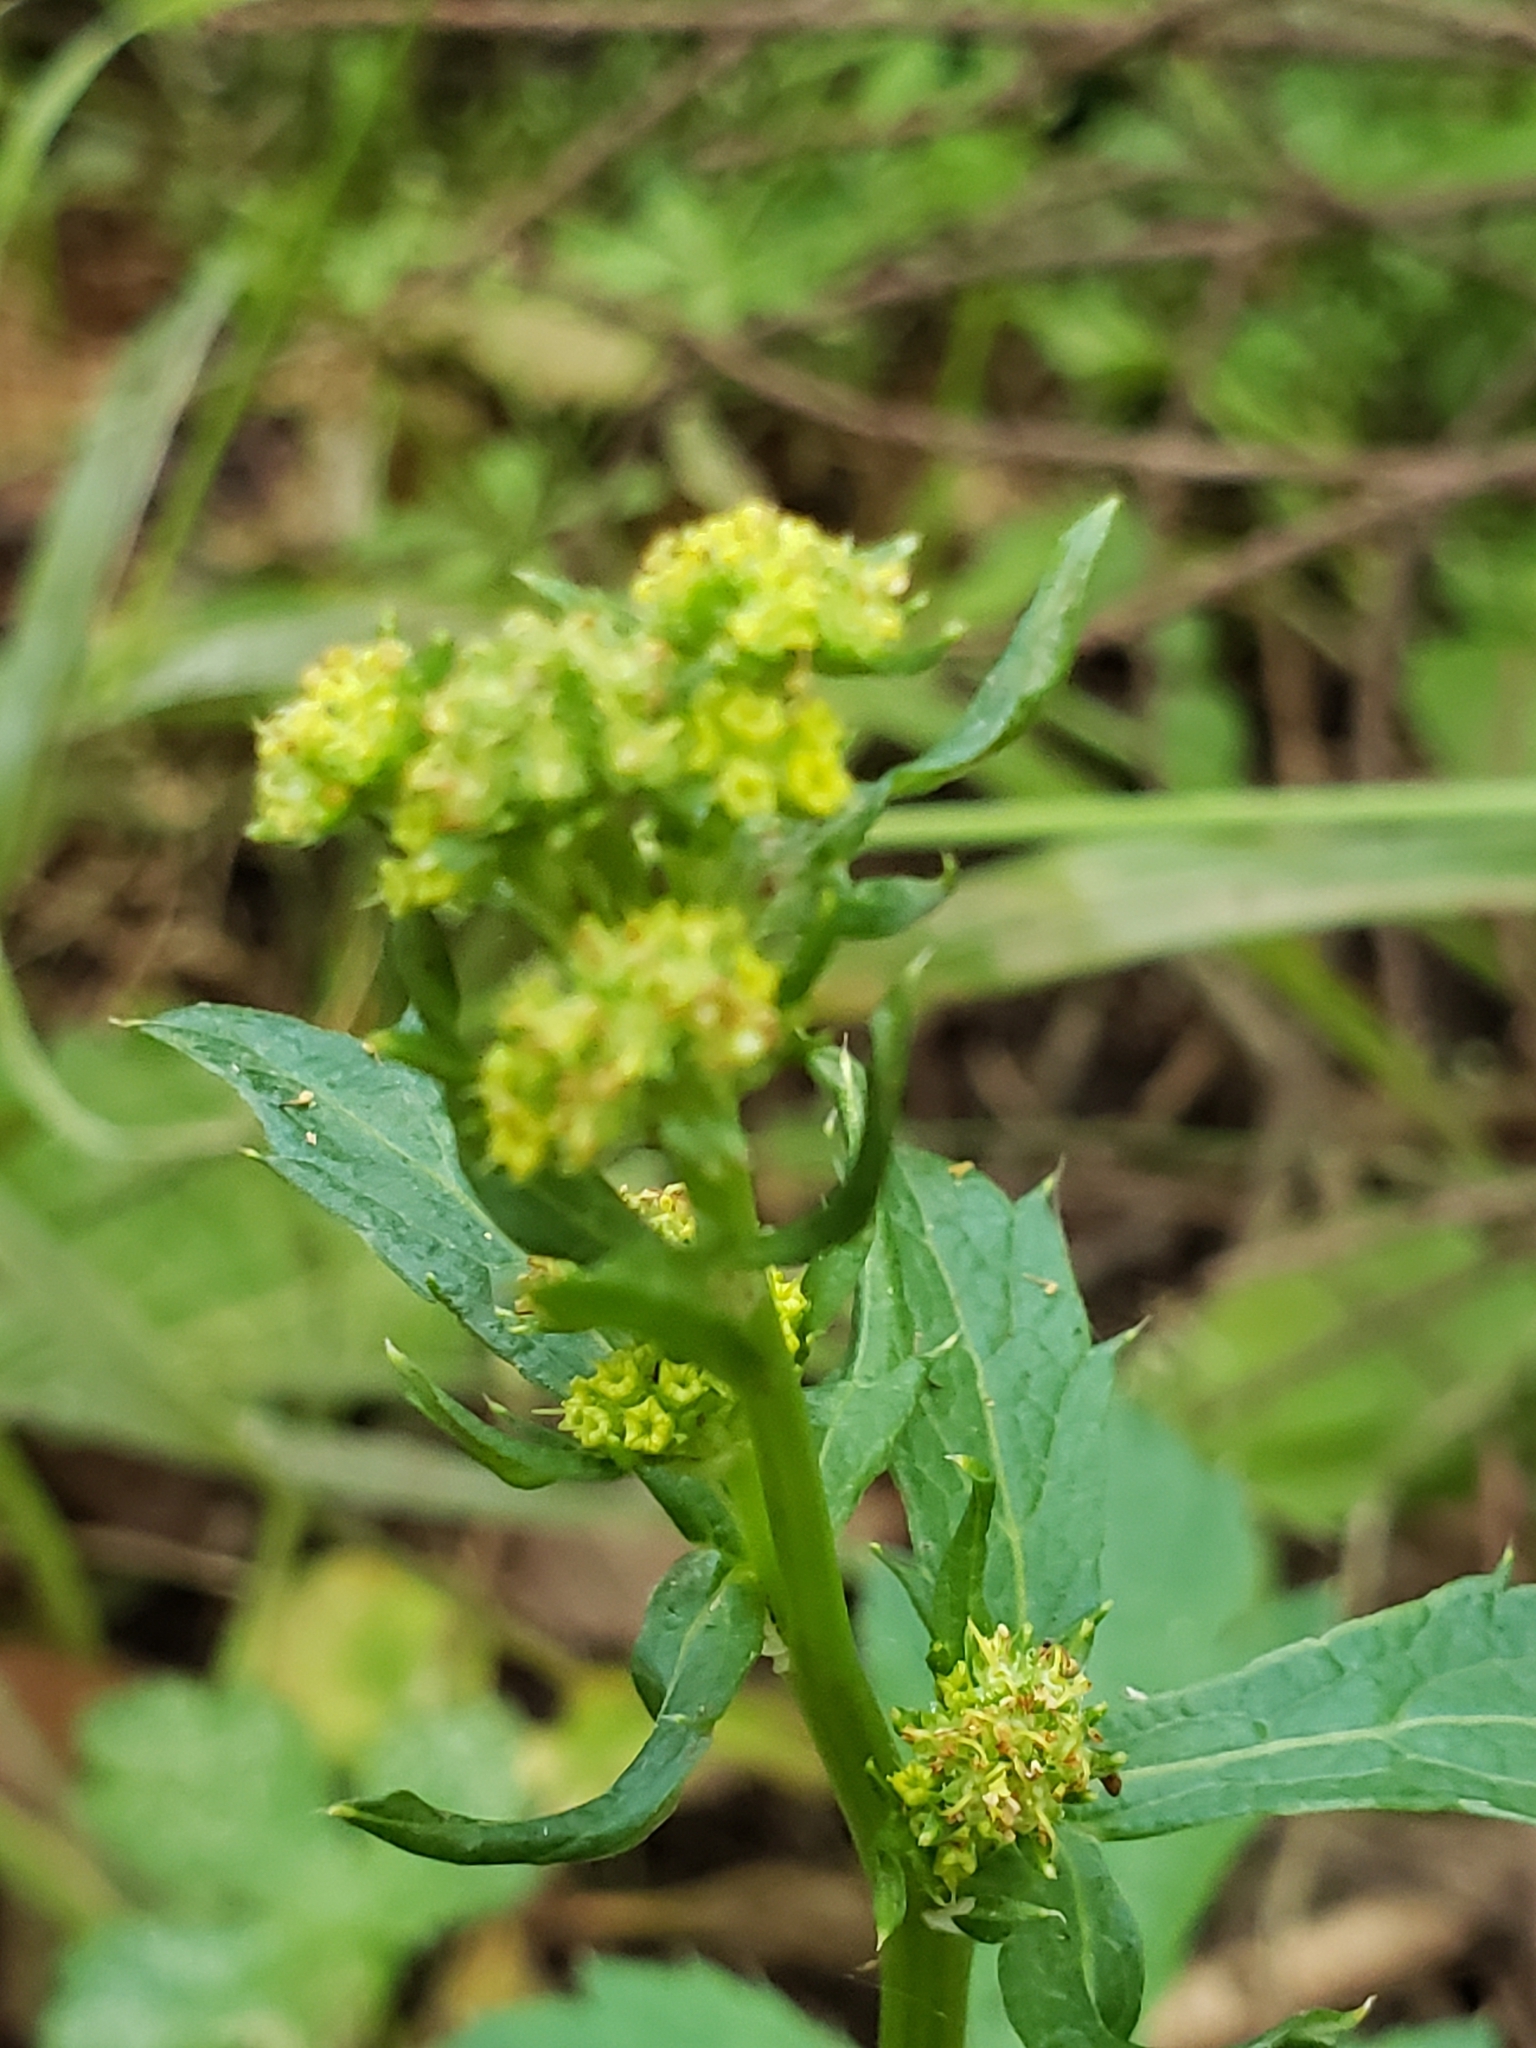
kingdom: Plantae
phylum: Tracheophyta
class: Magnoliopsida
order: Apiales
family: Apiaceae
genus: Sanicula
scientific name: Sanicula crassicaulis
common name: Western snakeroot
